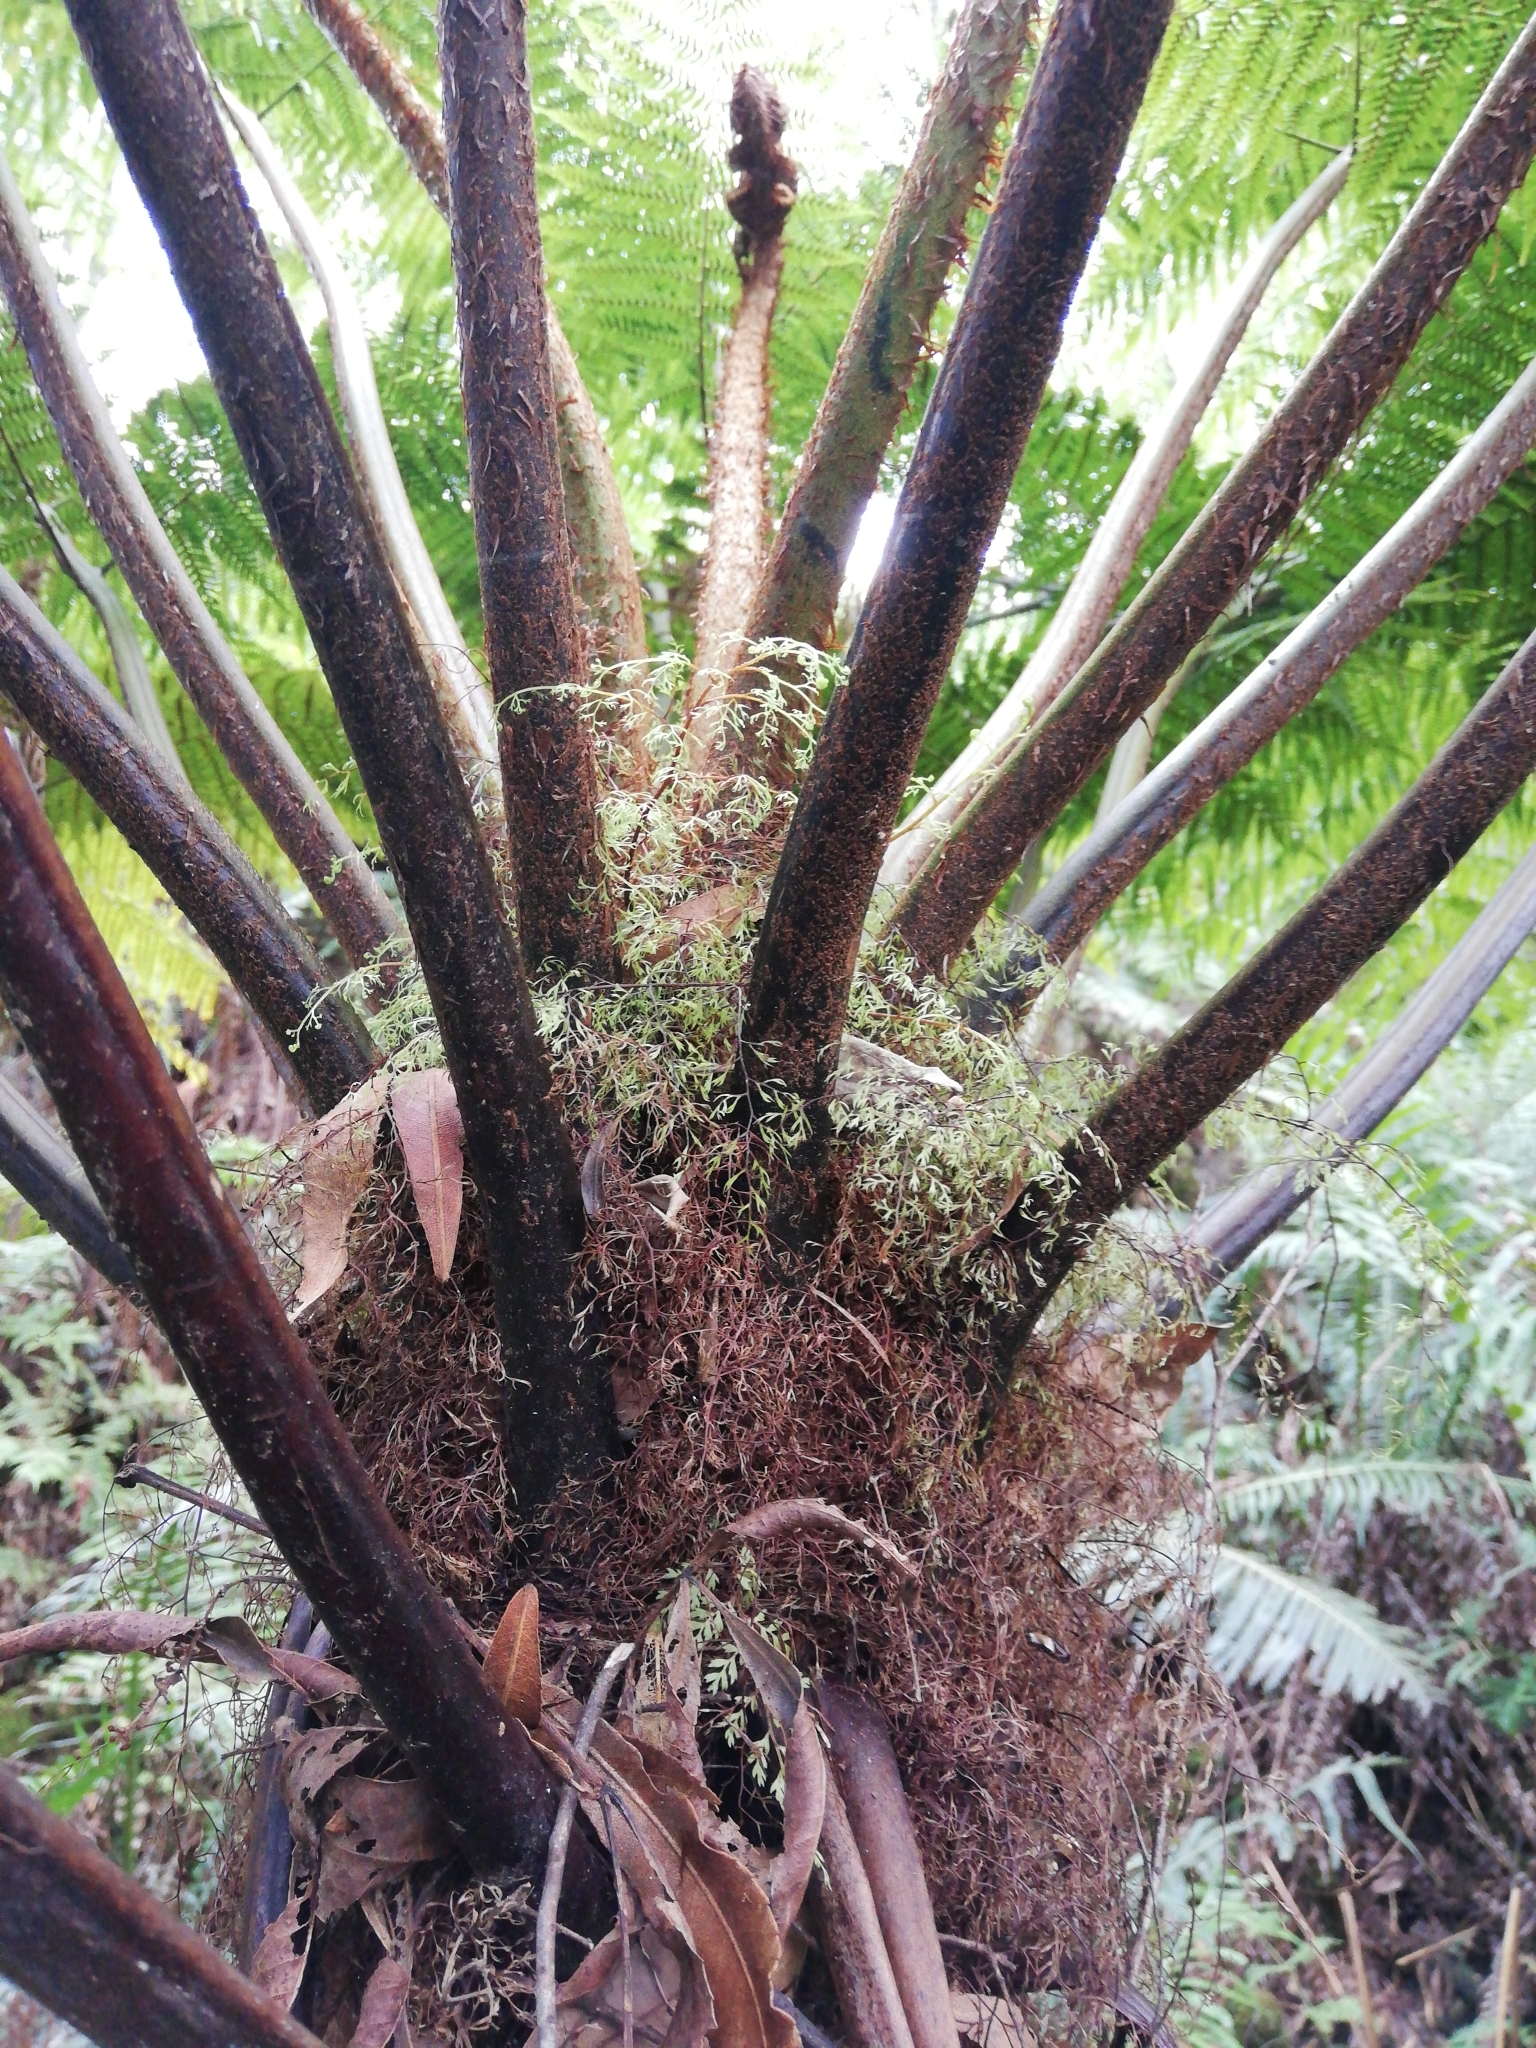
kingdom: Plantae
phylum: Tracheophyta
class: Polypodiopsida
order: Cyatheales
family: Cyatheaceae
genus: Gymnosphaera
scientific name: Gymnosphaera capensis
